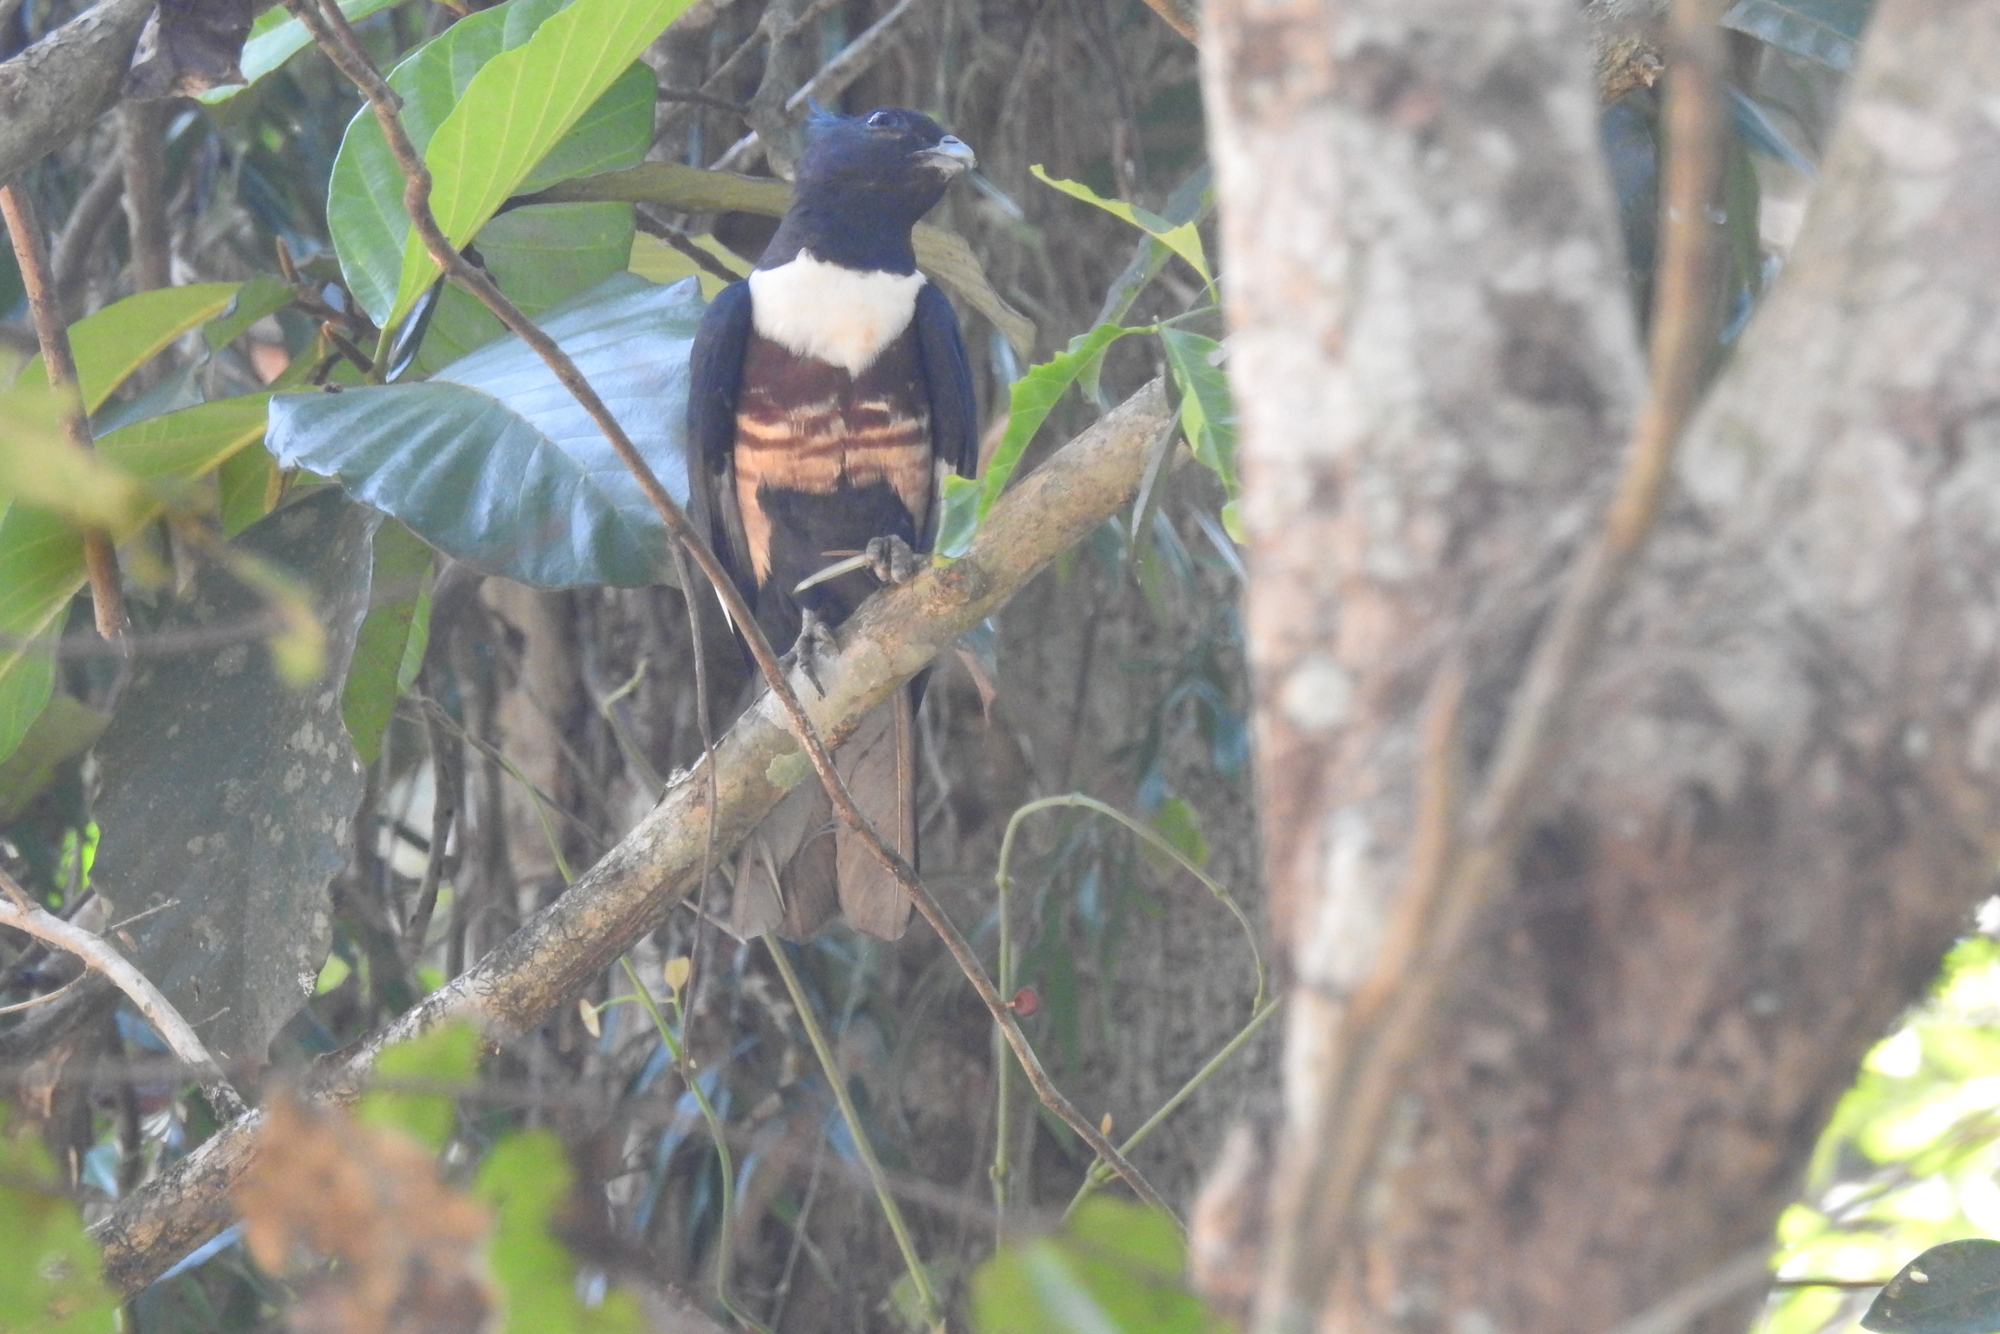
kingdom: Animalia
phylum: Chordata
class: Aves
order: Accipitriformes
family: Accipitridae
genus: Aviceda
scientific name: Aviceda leuphotes
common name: Black baza
